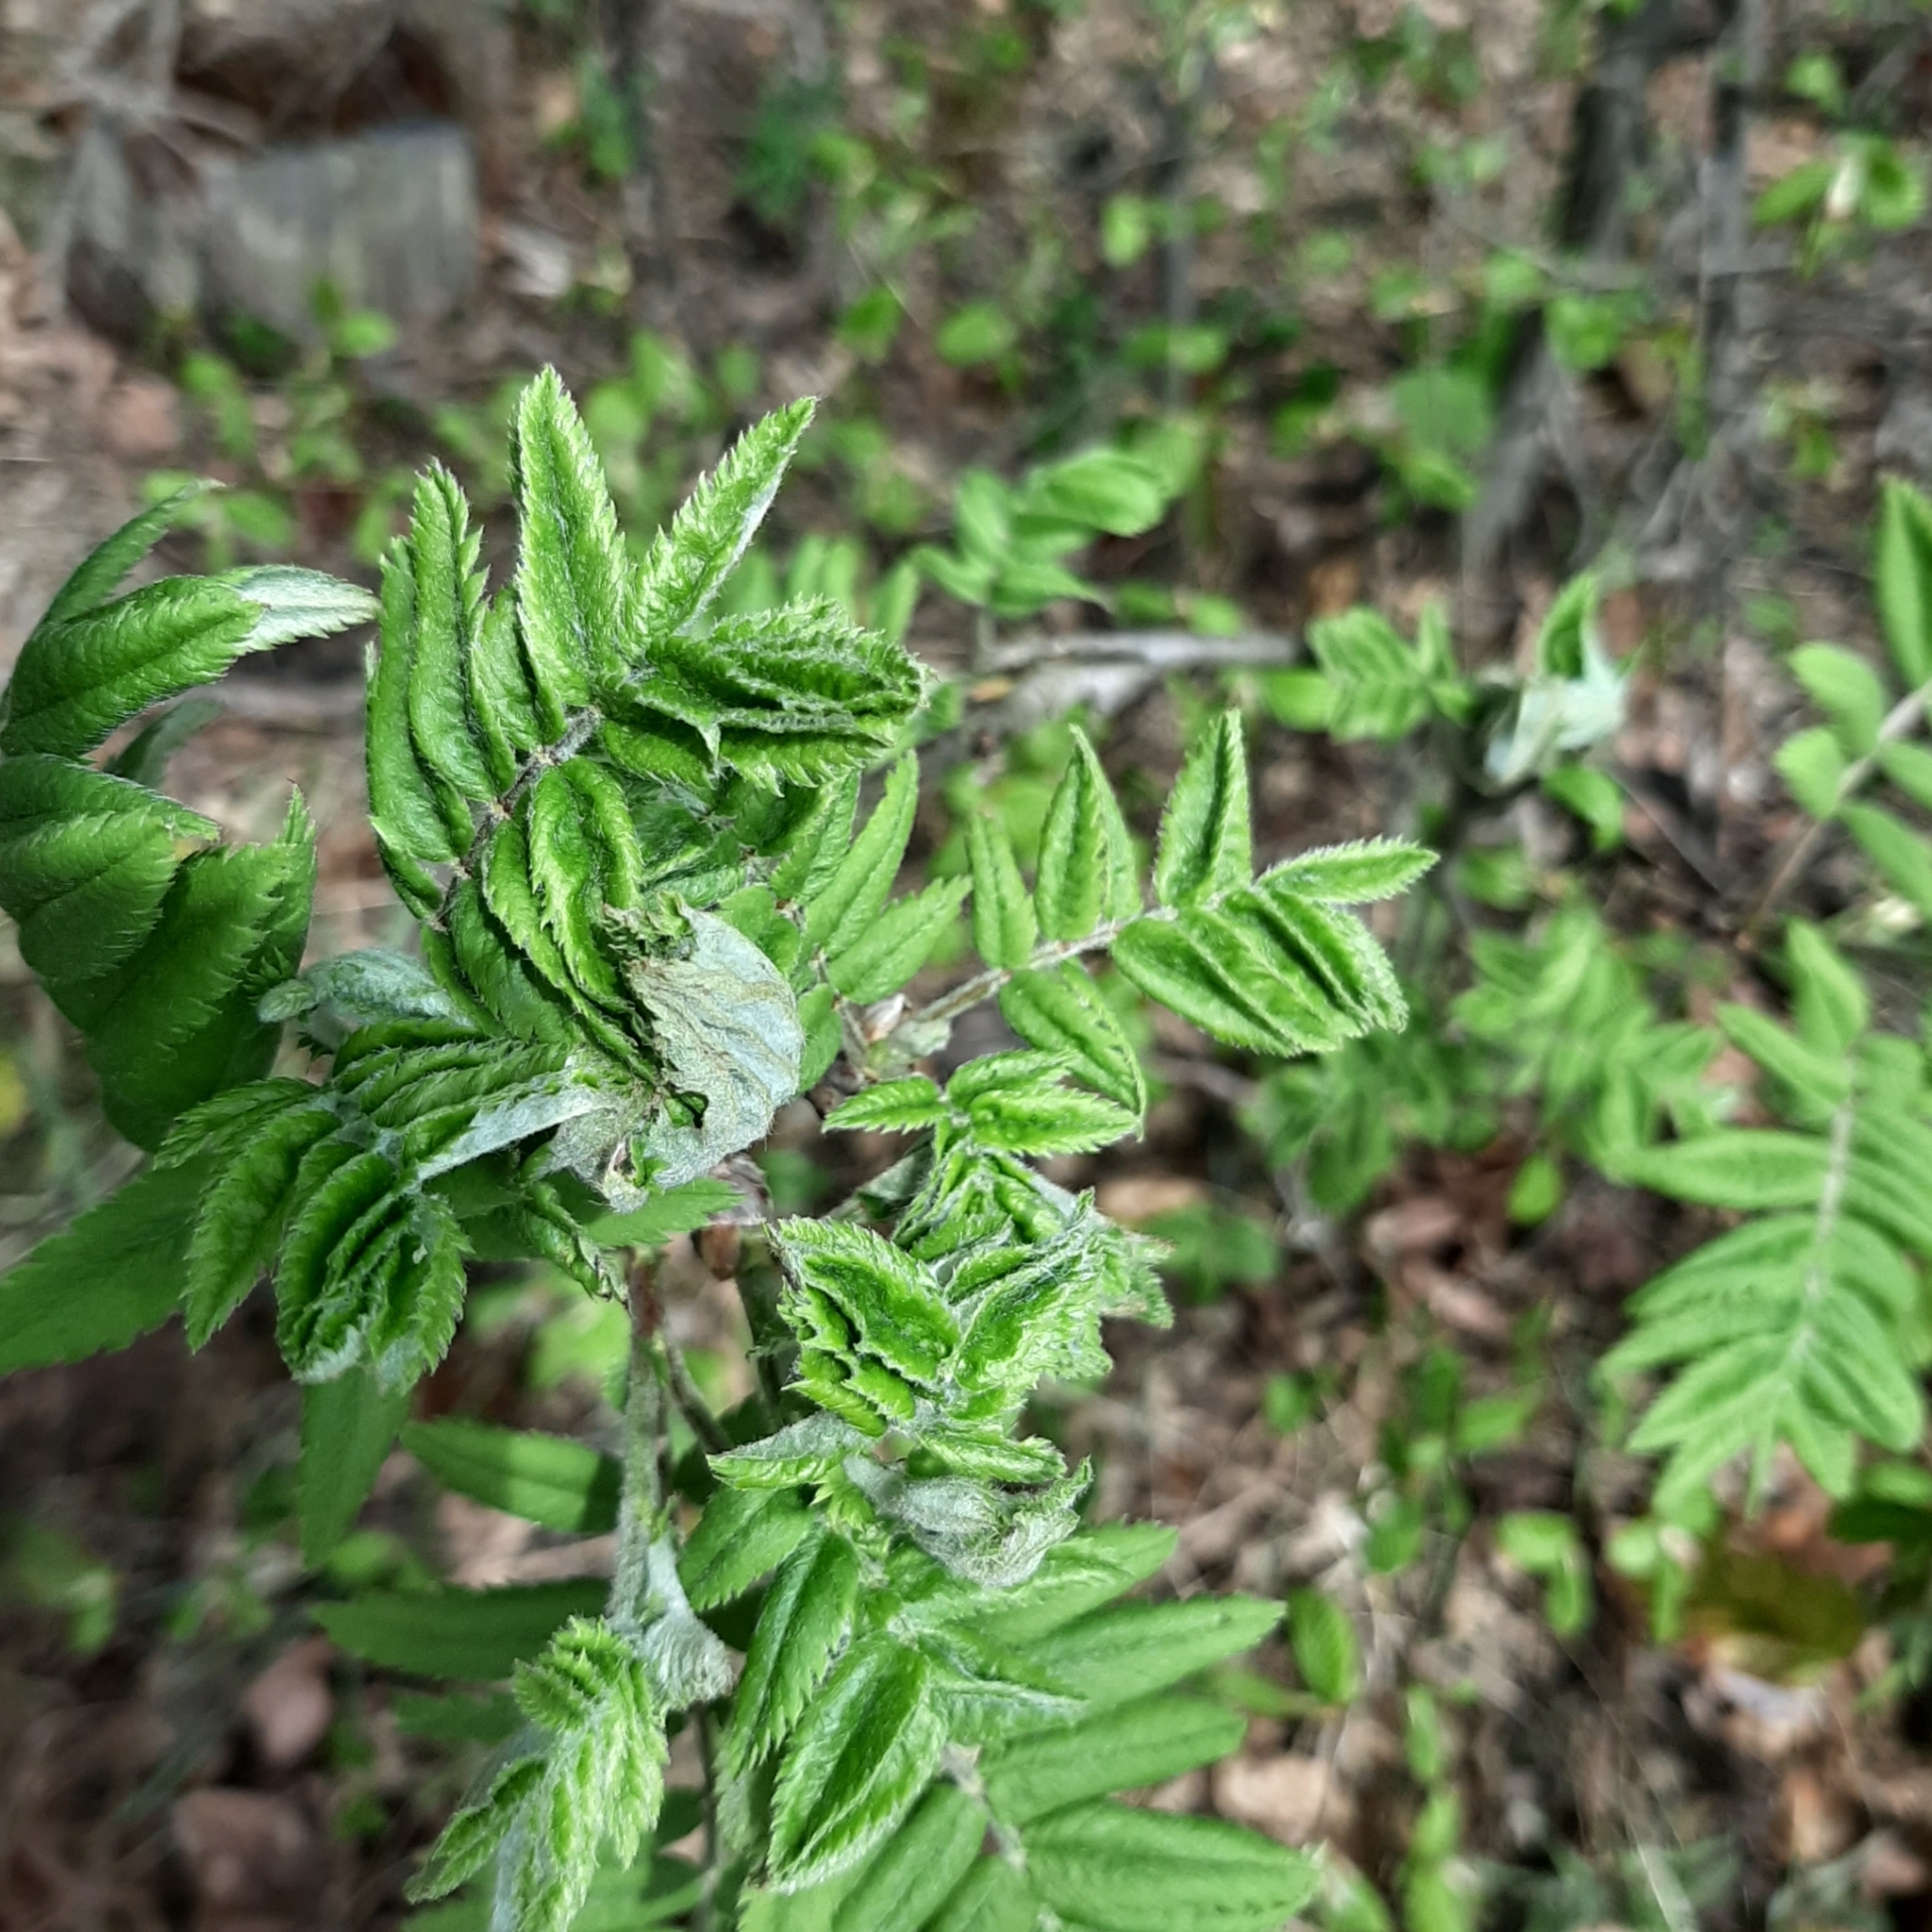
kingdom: Plantae
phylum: Tracheophyta
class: Magnoliopsida
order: Rosales
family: Rosaceae
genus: Sorbus
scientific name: Sorbus aucuparia
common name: Rowan
